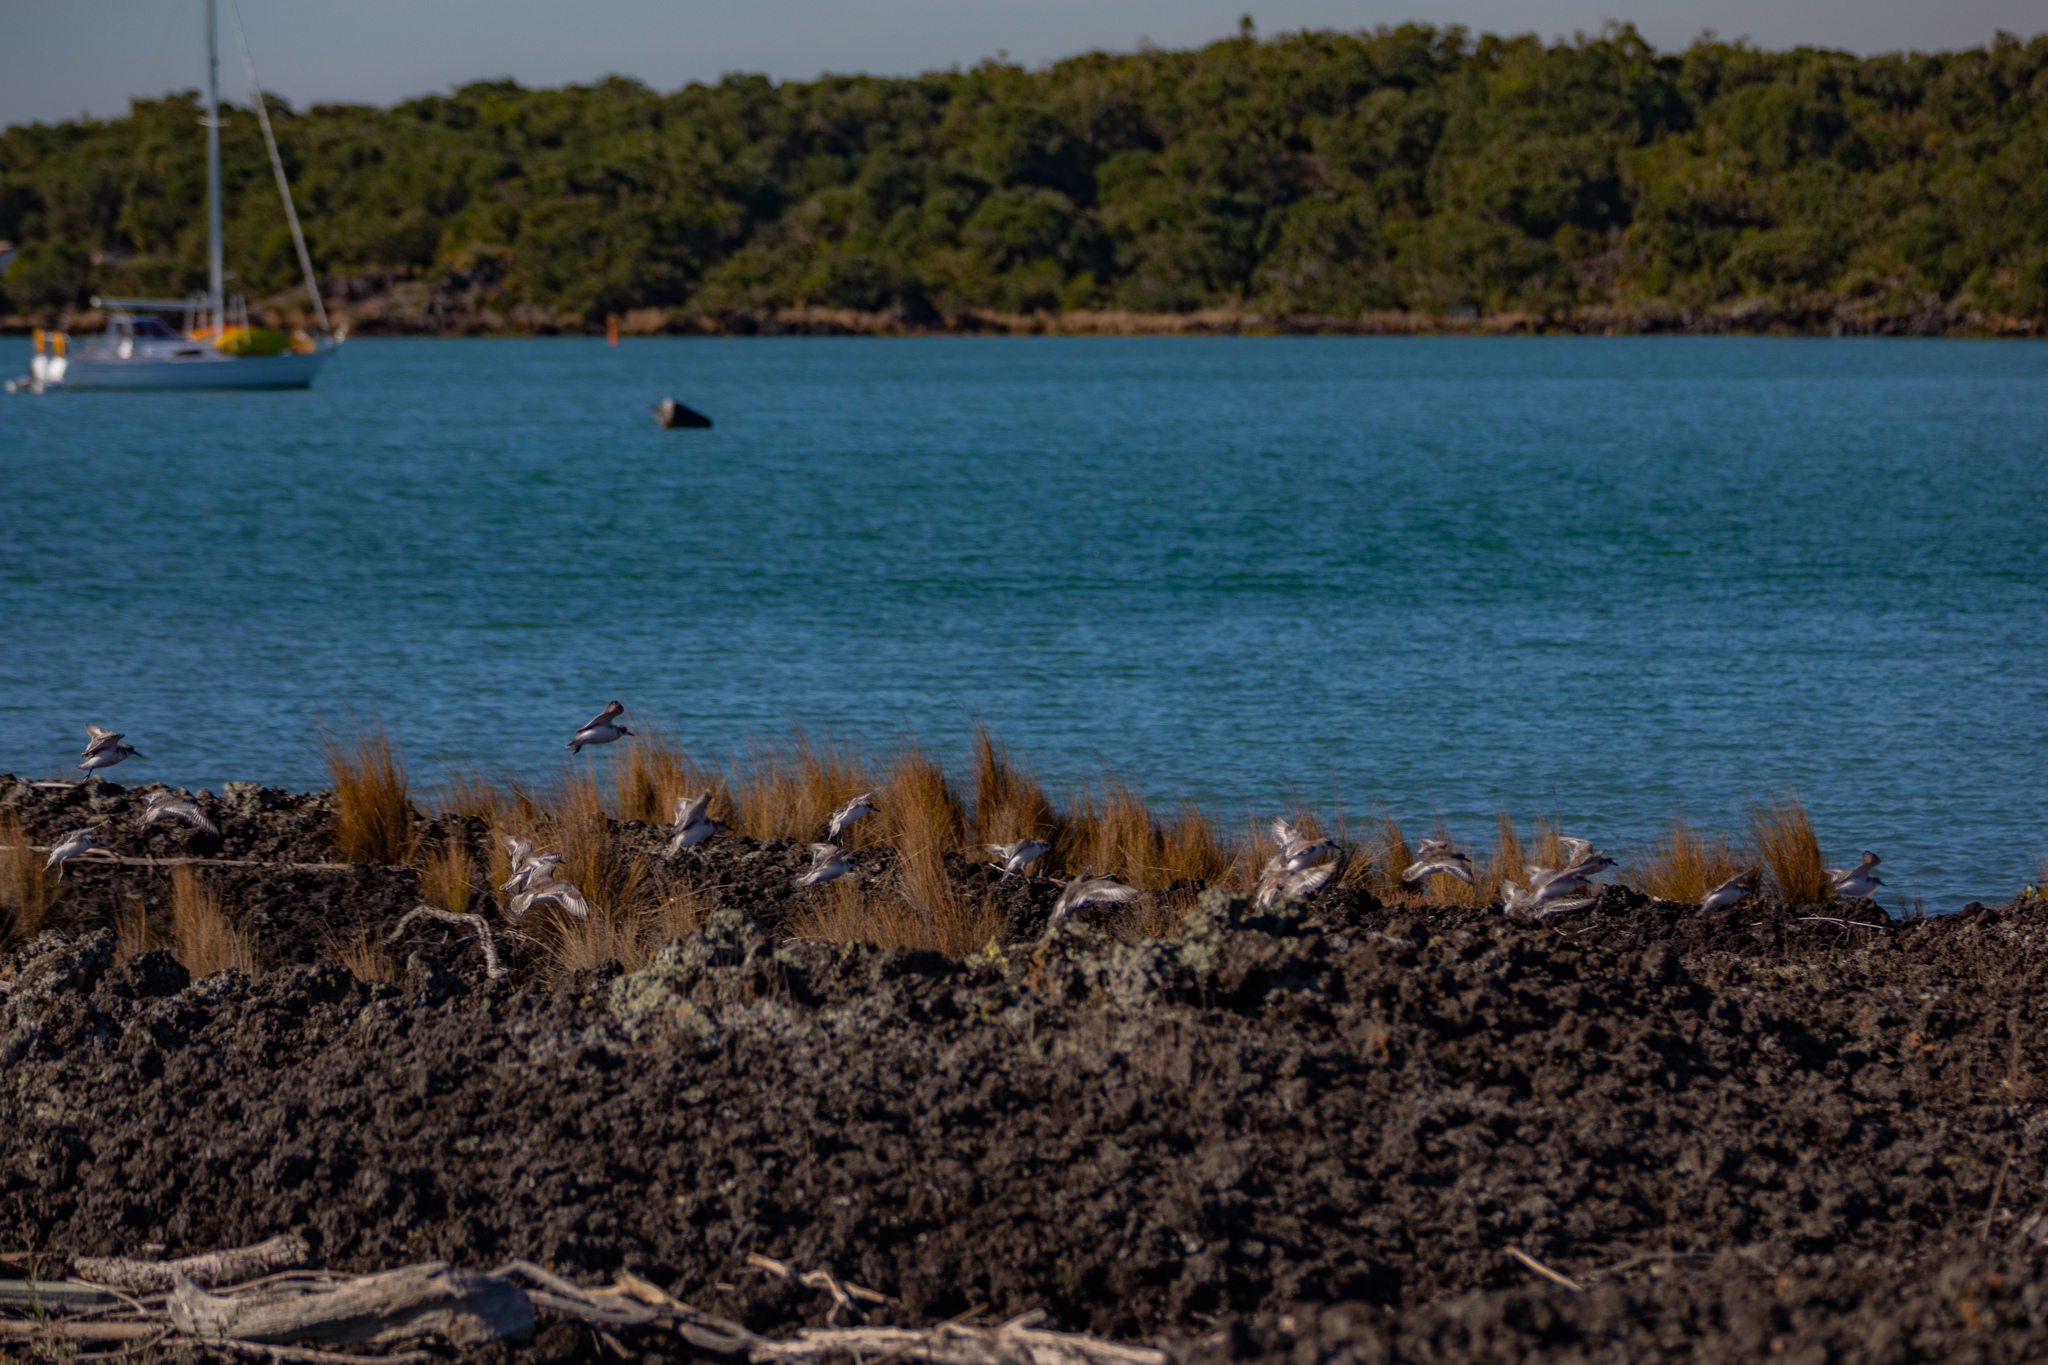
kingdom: Animalia
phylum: Chordata
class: Aves
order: Charadriiformes
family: Charadriidae
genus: Anarhynchus
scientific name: Anarhynchus
